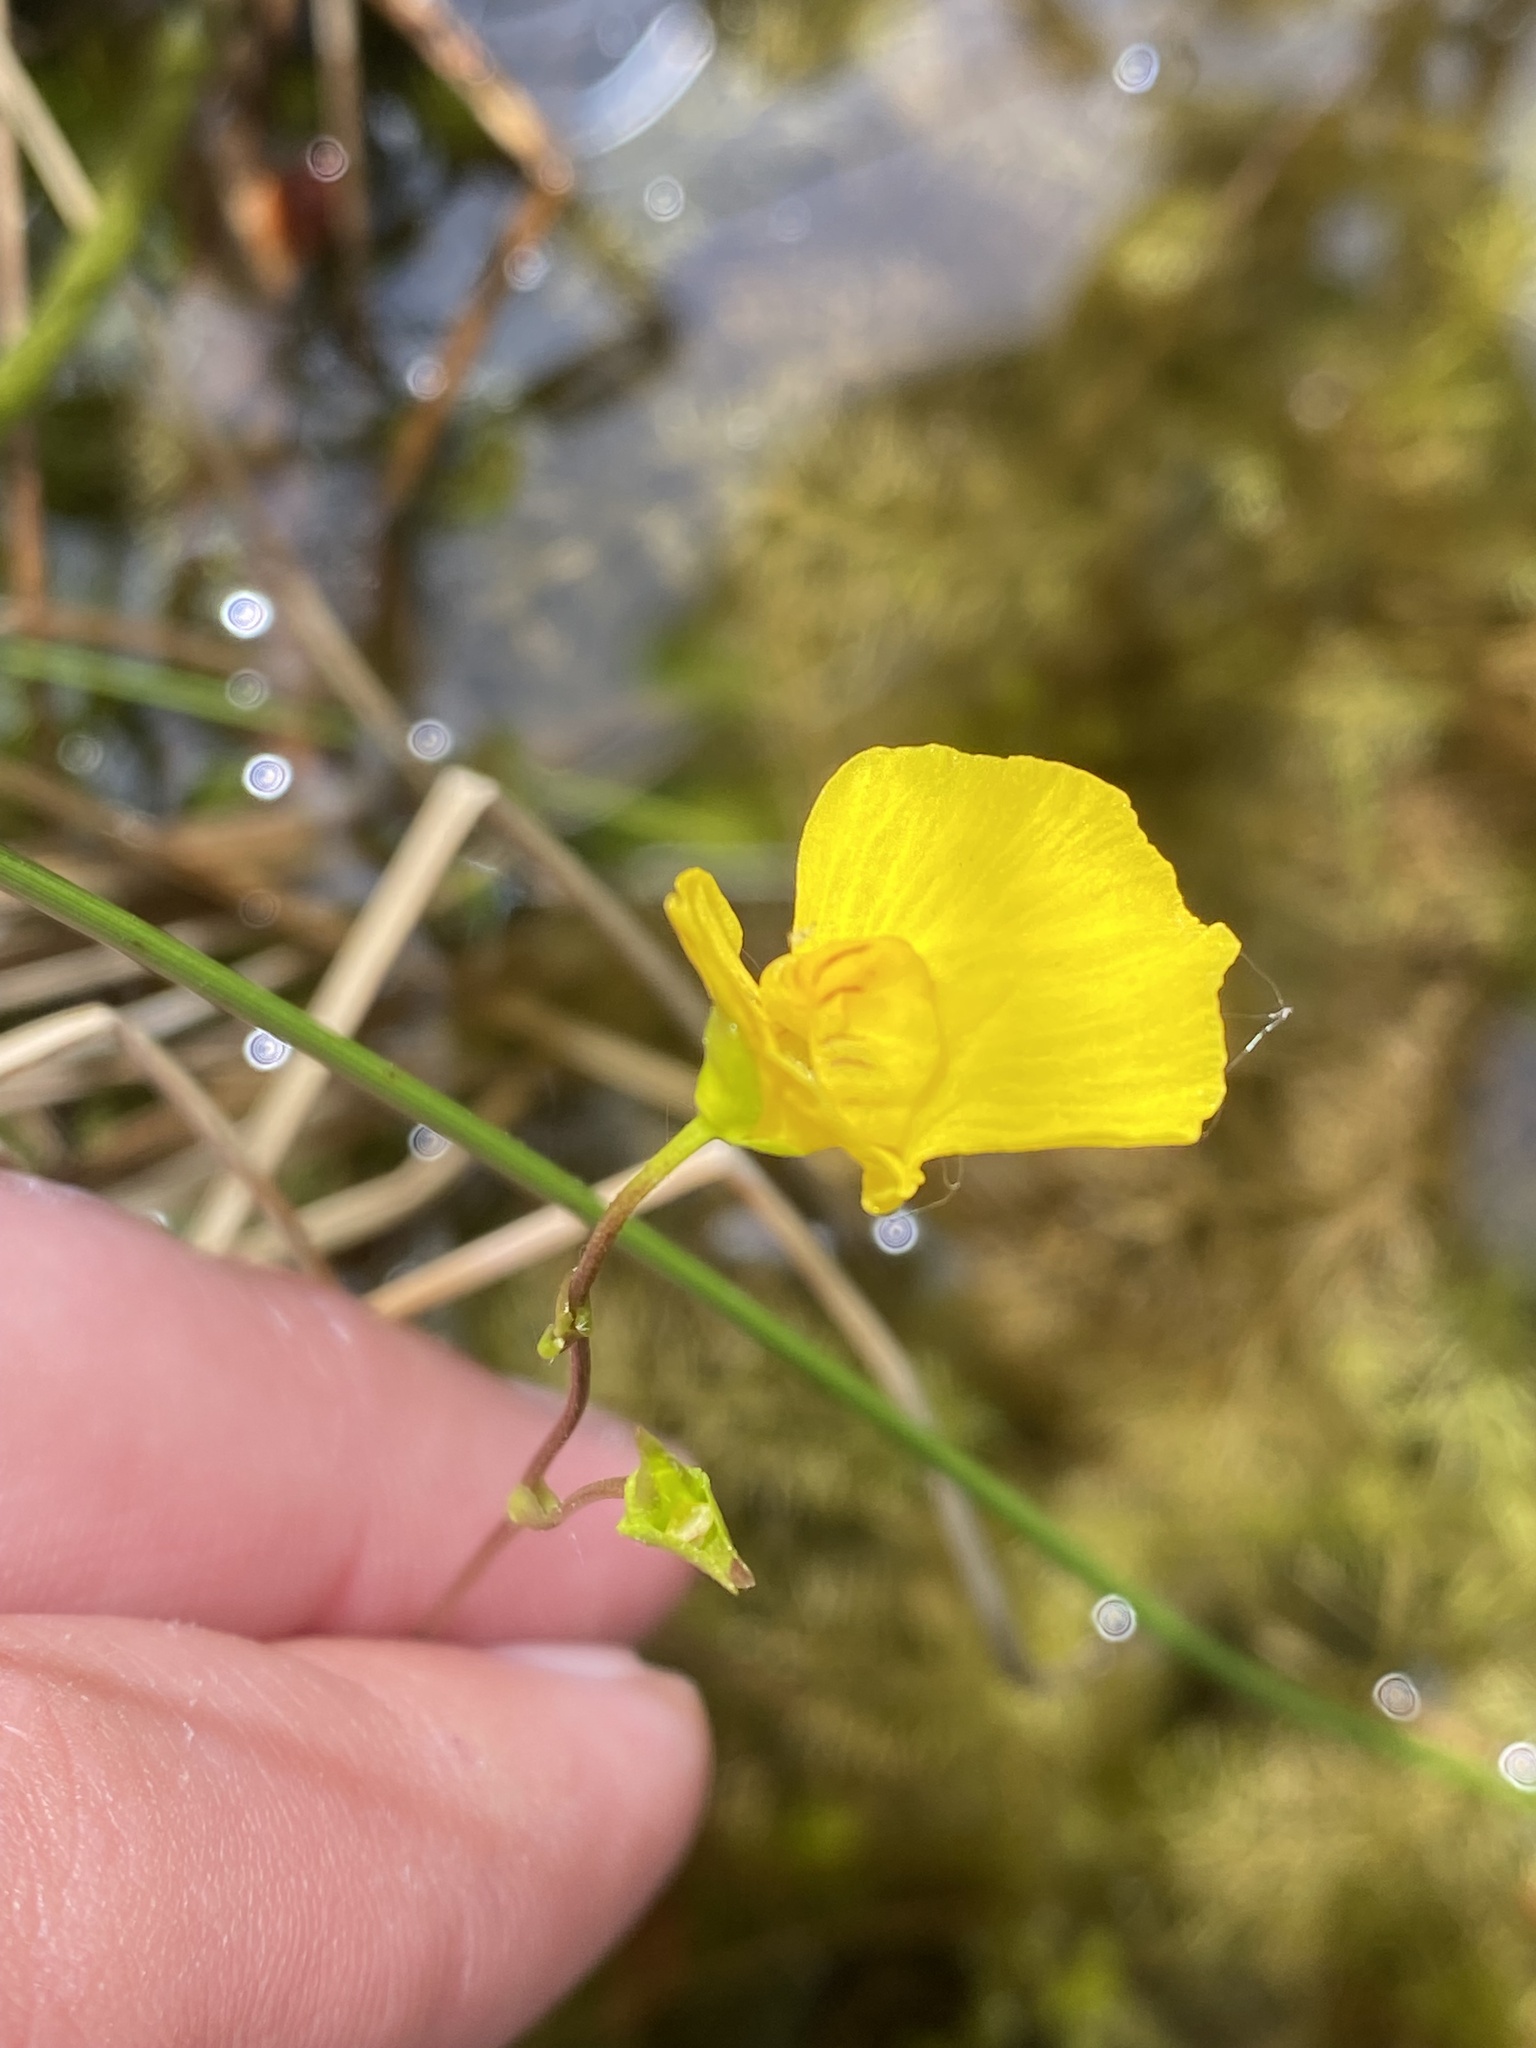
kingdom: Plantae
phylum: Tracheophyta
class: Magnoliopsida
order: Lamiales
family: Lentibulariaceae
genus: Utricularia
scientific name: Utricularia intermedia
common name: Intermediate bladderwort
